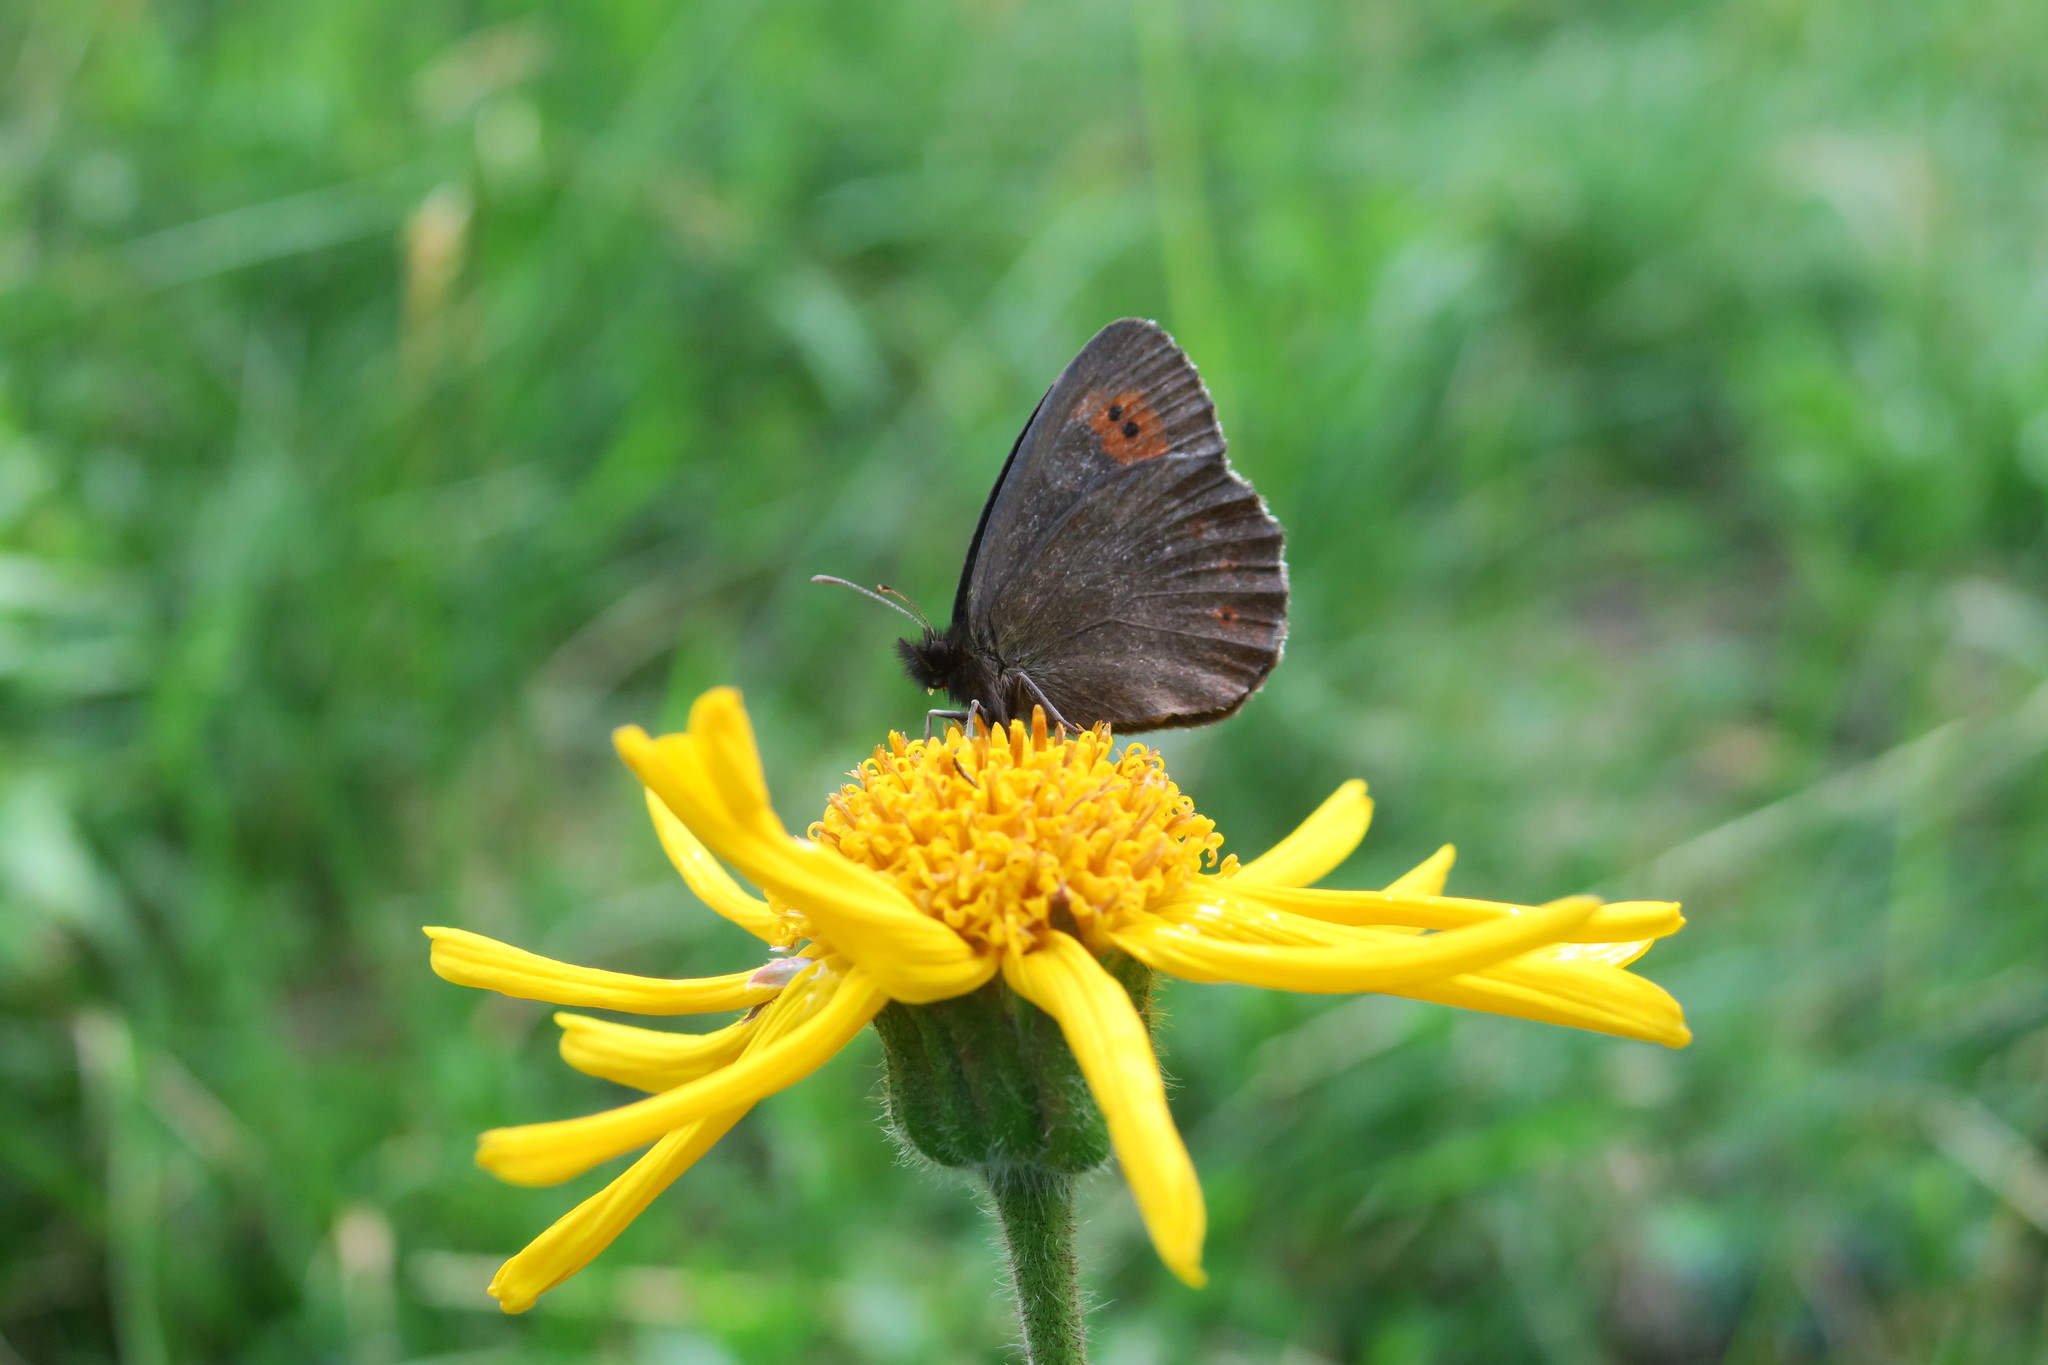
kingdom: Animalia
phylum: Arthropoda
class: Insecta
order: Lepidoptera
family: Nymphalidae
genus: Erebia
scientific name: Erebia euryale
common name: Large ringlet
